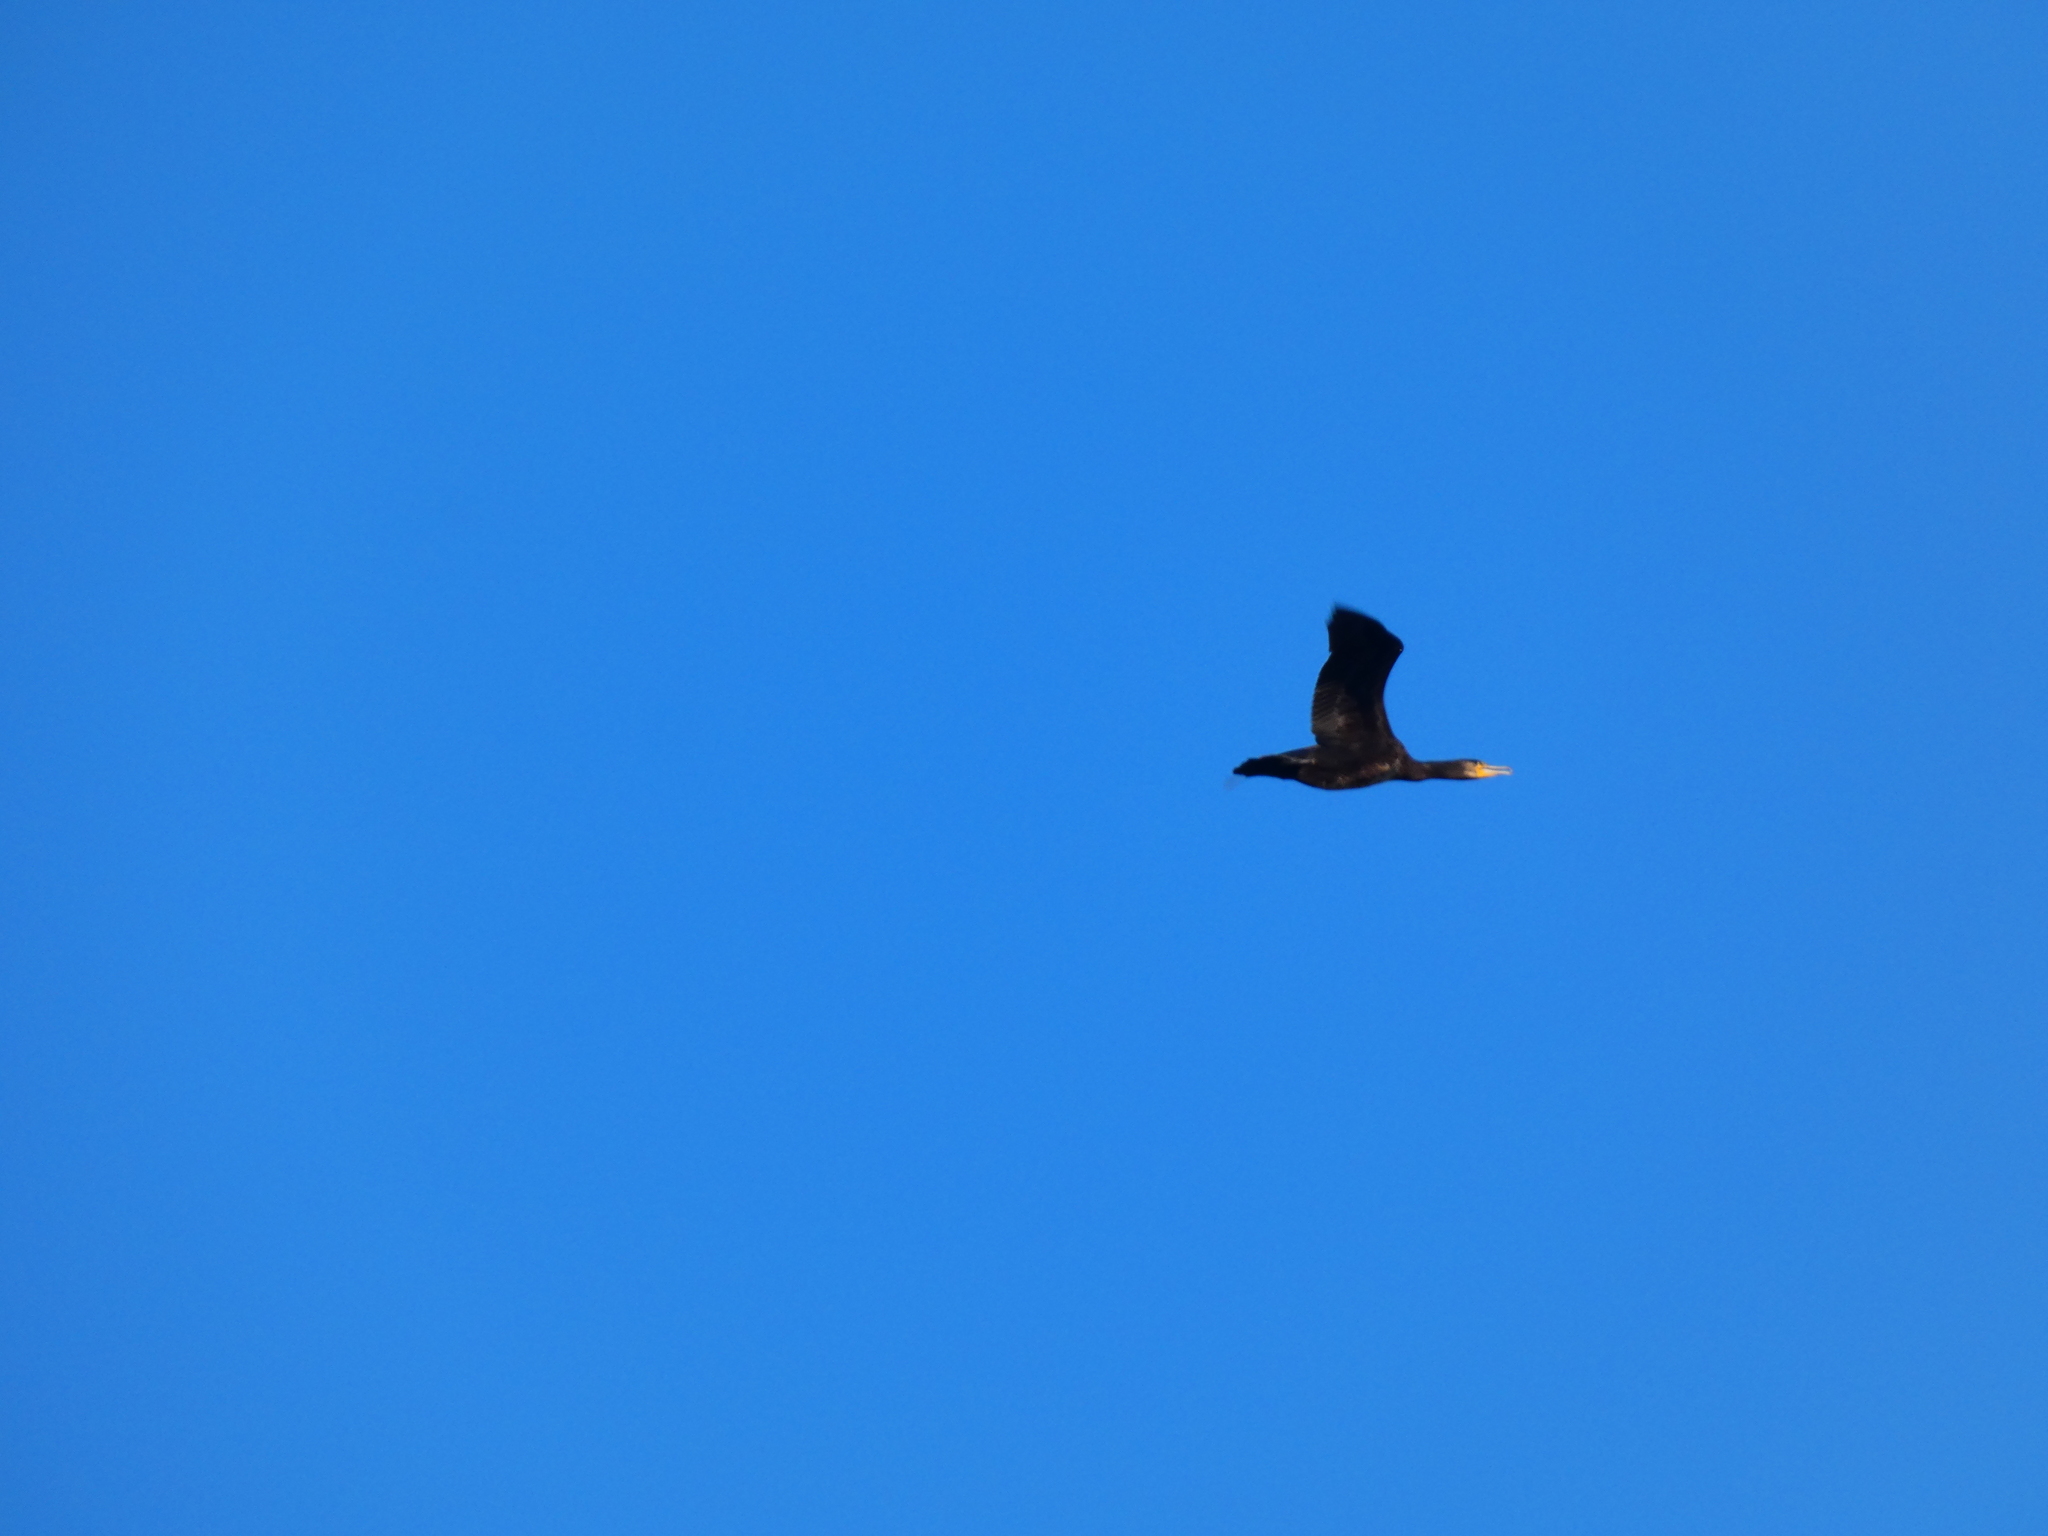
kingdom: Animalia
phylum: Chordata
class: Aves
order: Suliformes
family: Phalacrocoracidae
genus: Phalacrocorax
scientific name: Phalacrocorax carbo
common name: Great cormorant
